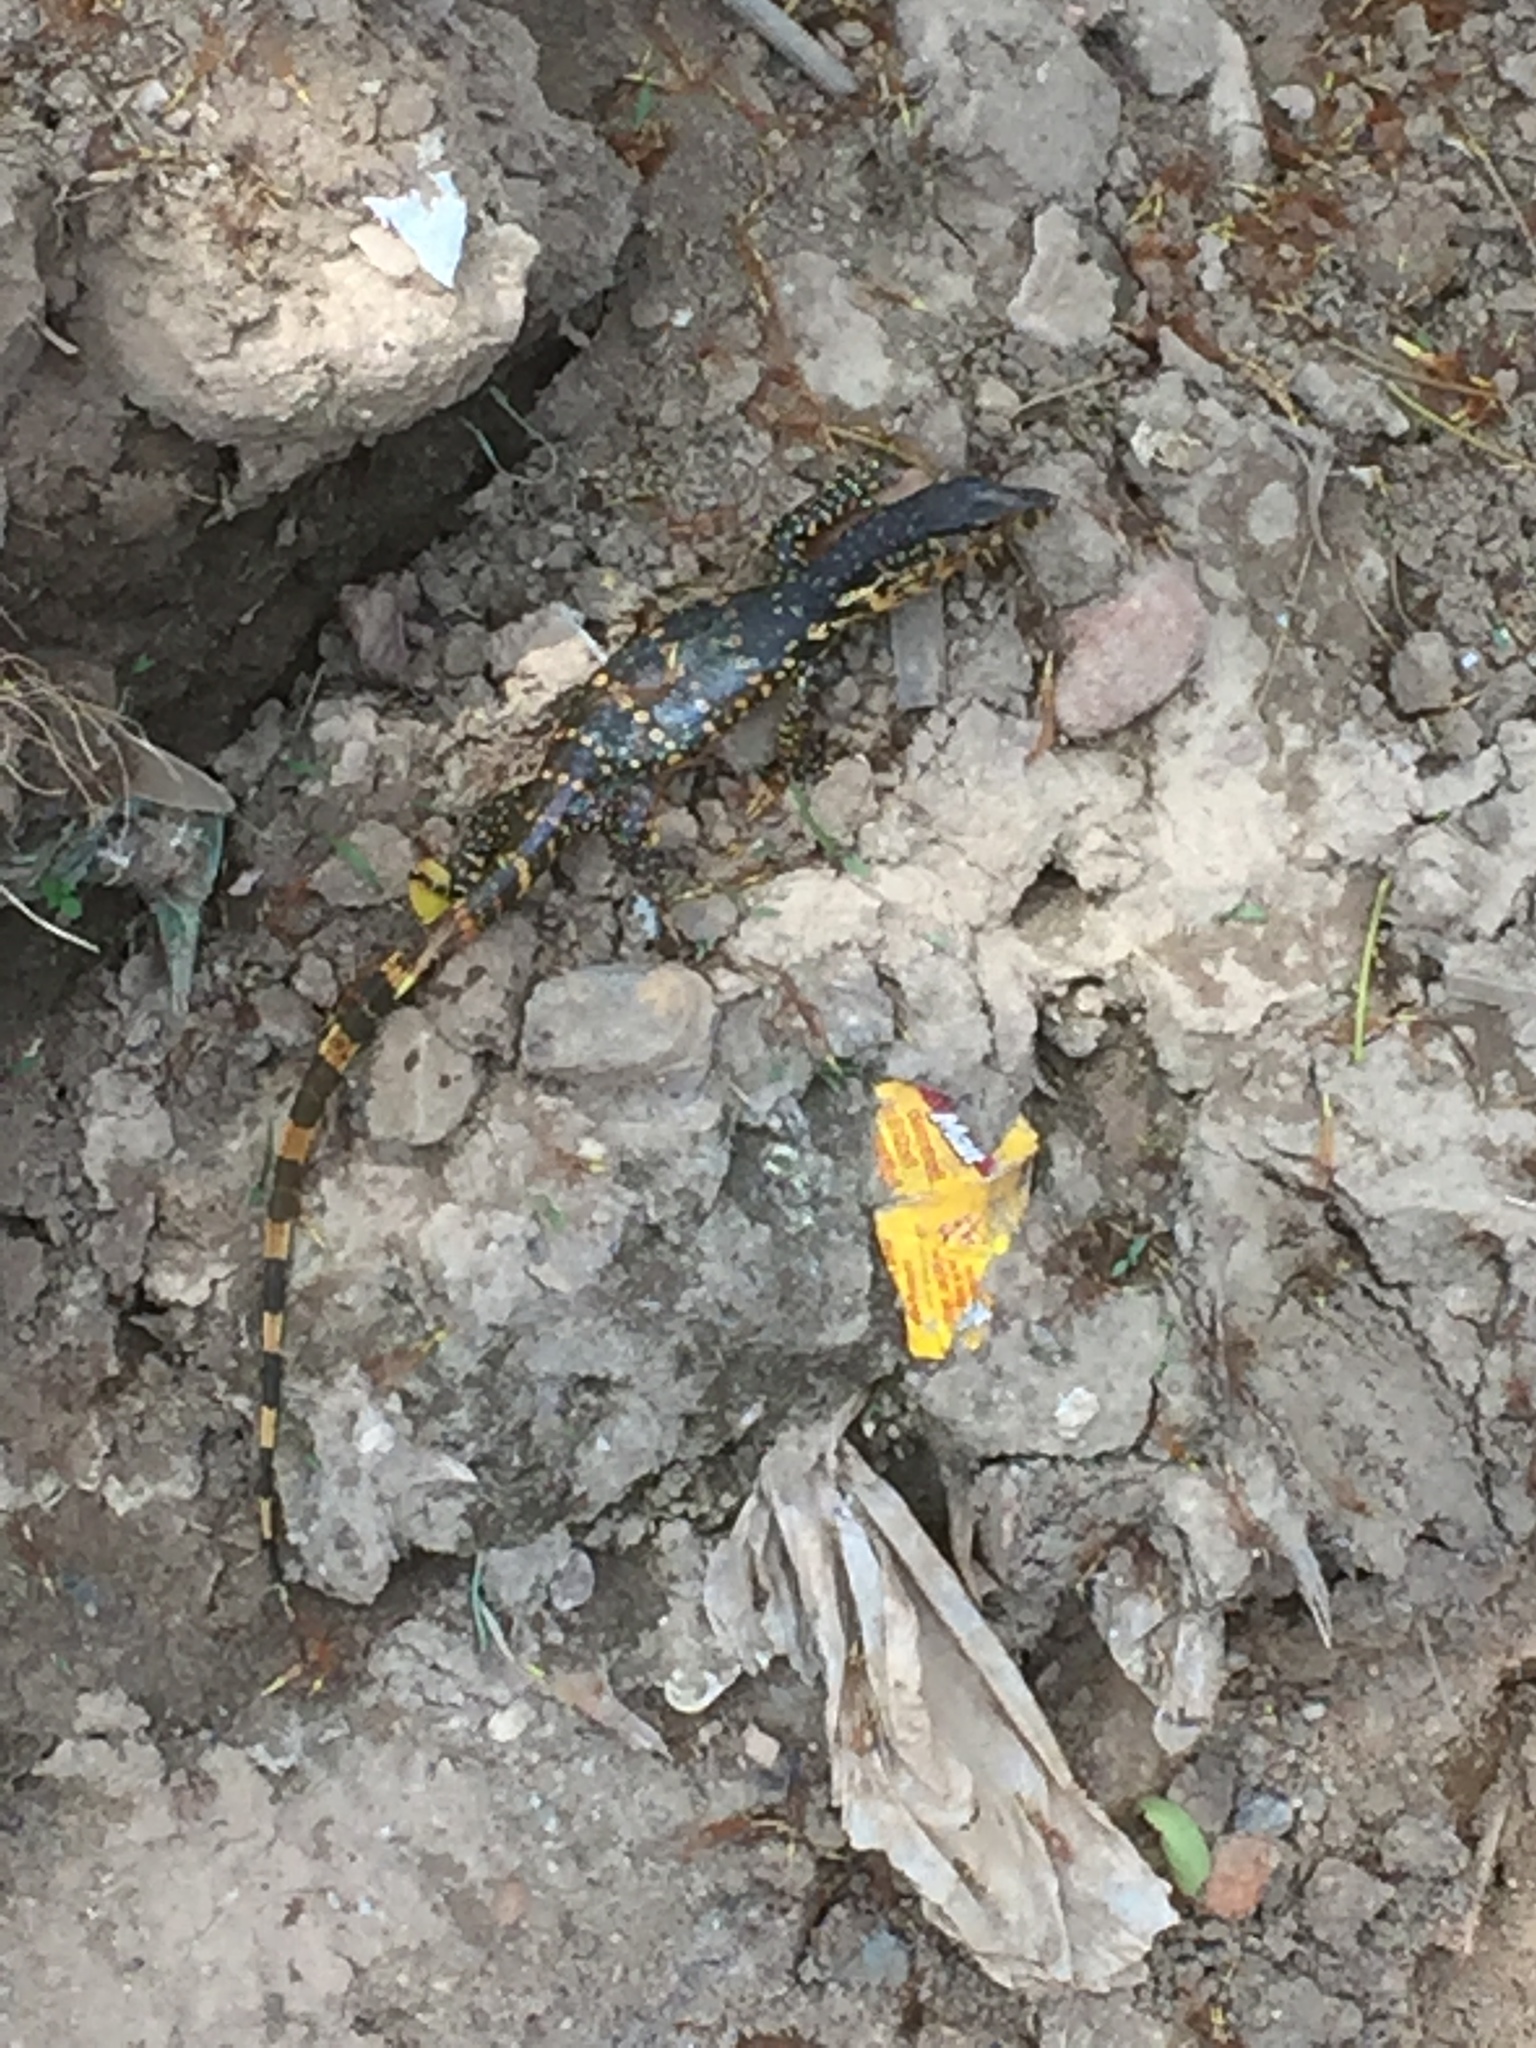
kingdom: Animalia
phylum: Chordata
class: Squamata
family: Varanidae
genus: Varanus
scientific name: Varanus salvator
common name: Common water monitor
